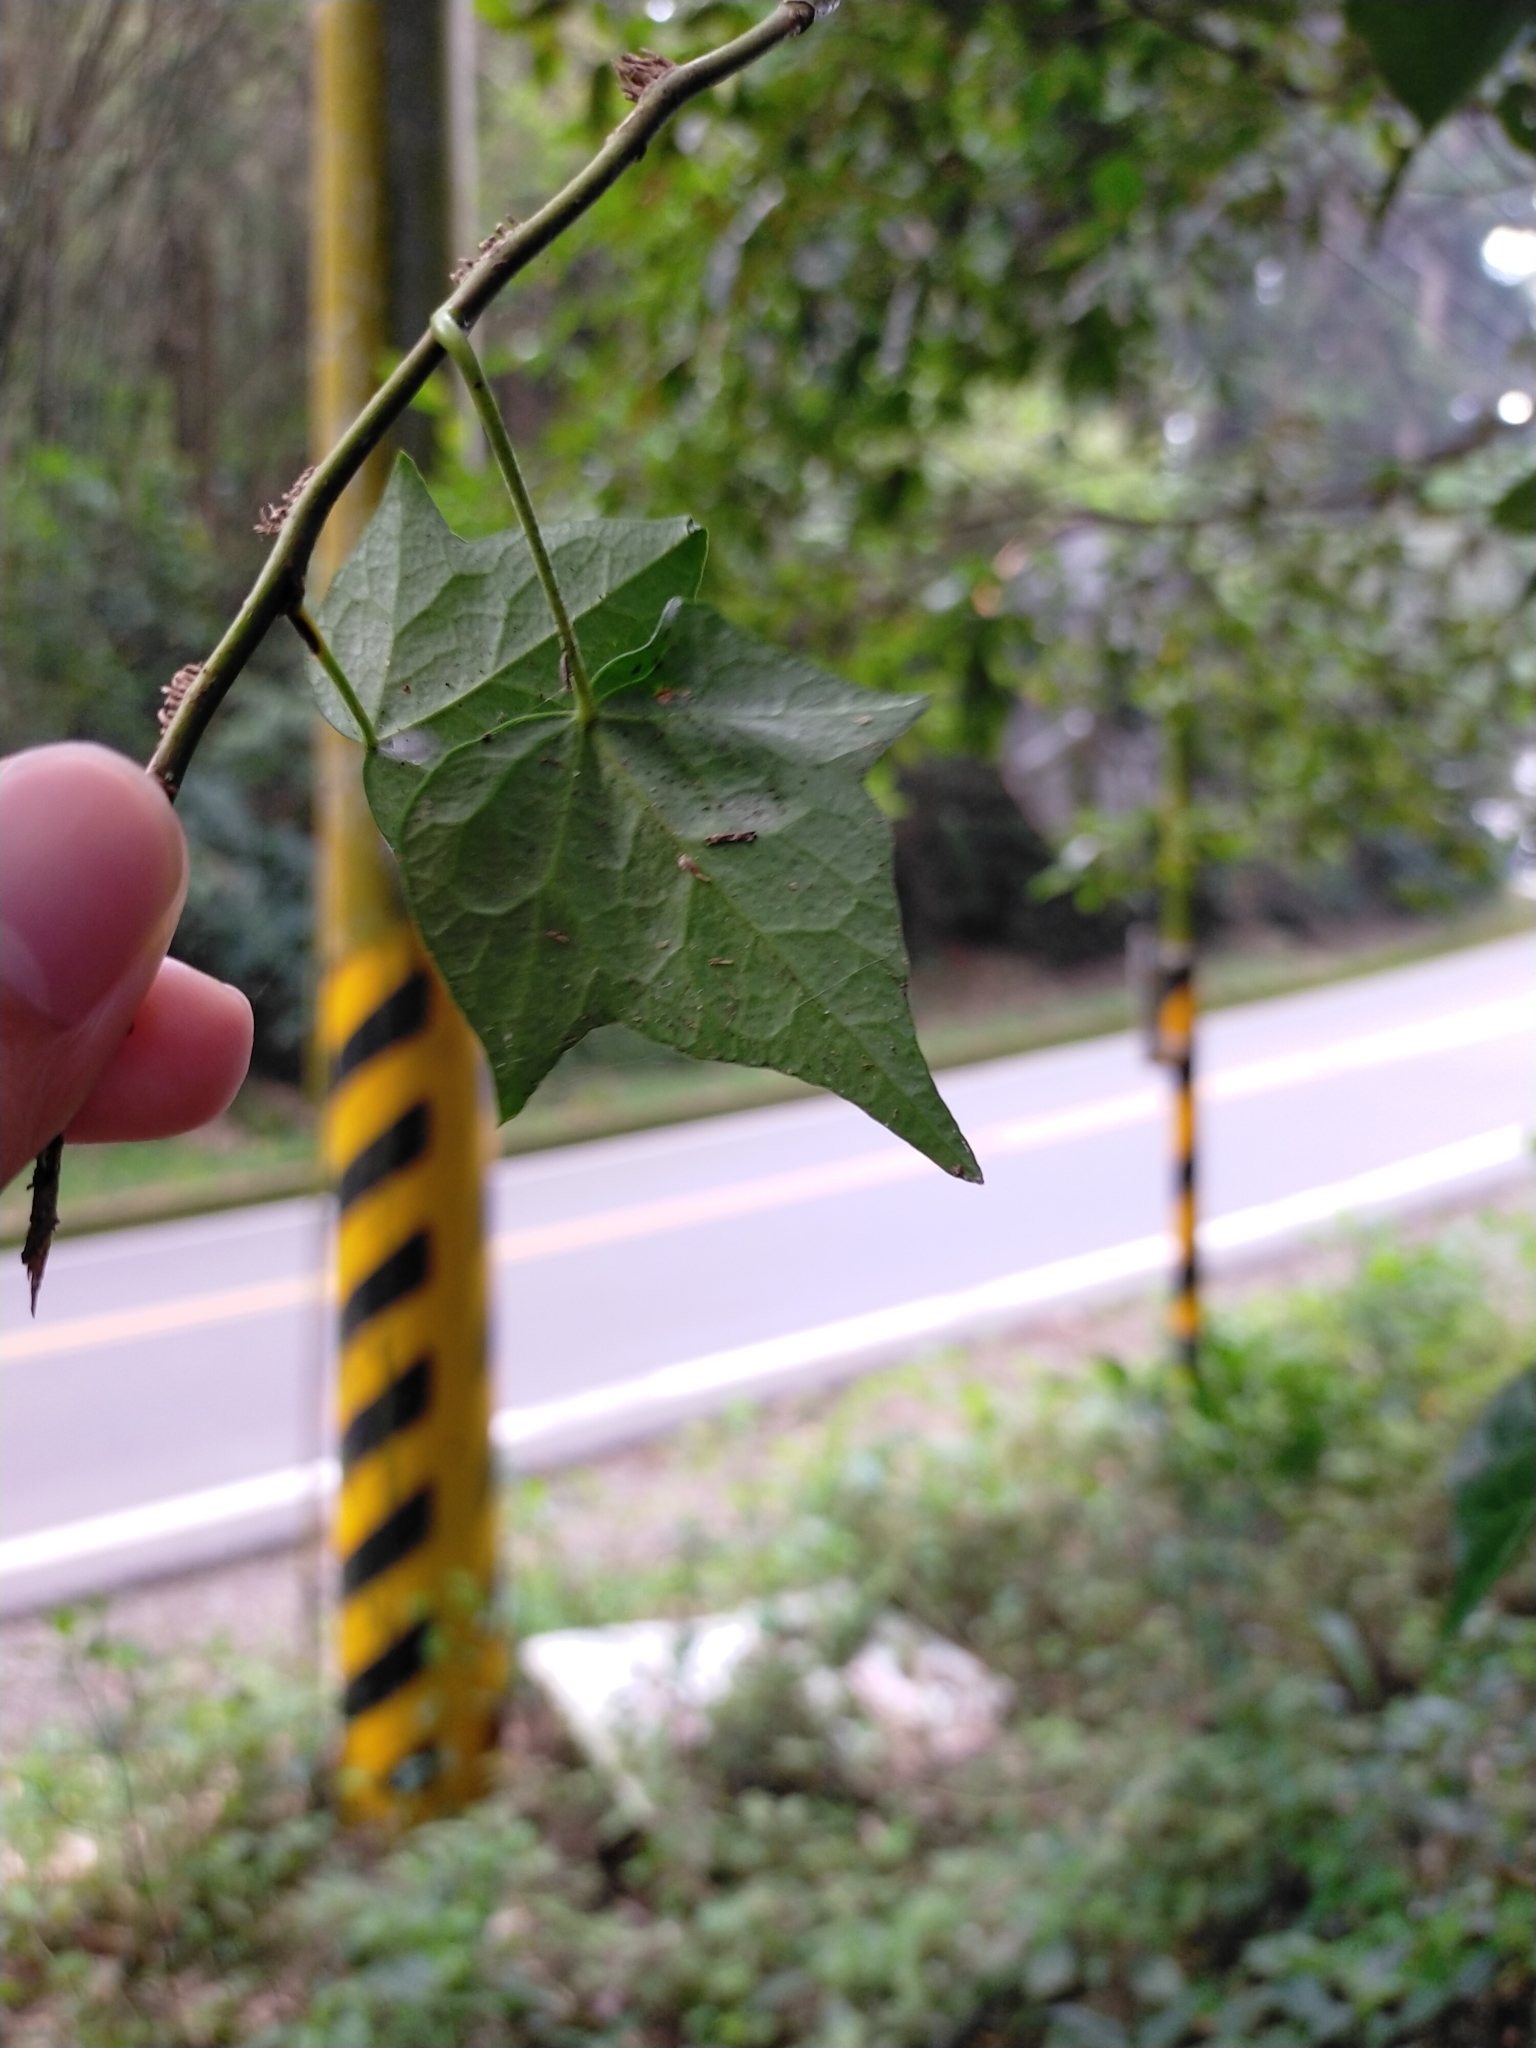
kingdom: Plantae
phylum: Tracheophyta
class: Magnoliopsida
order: Apiales
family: Araliaceae
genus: Hedera
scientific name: Hedera rhombea
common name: Japanese ivy
